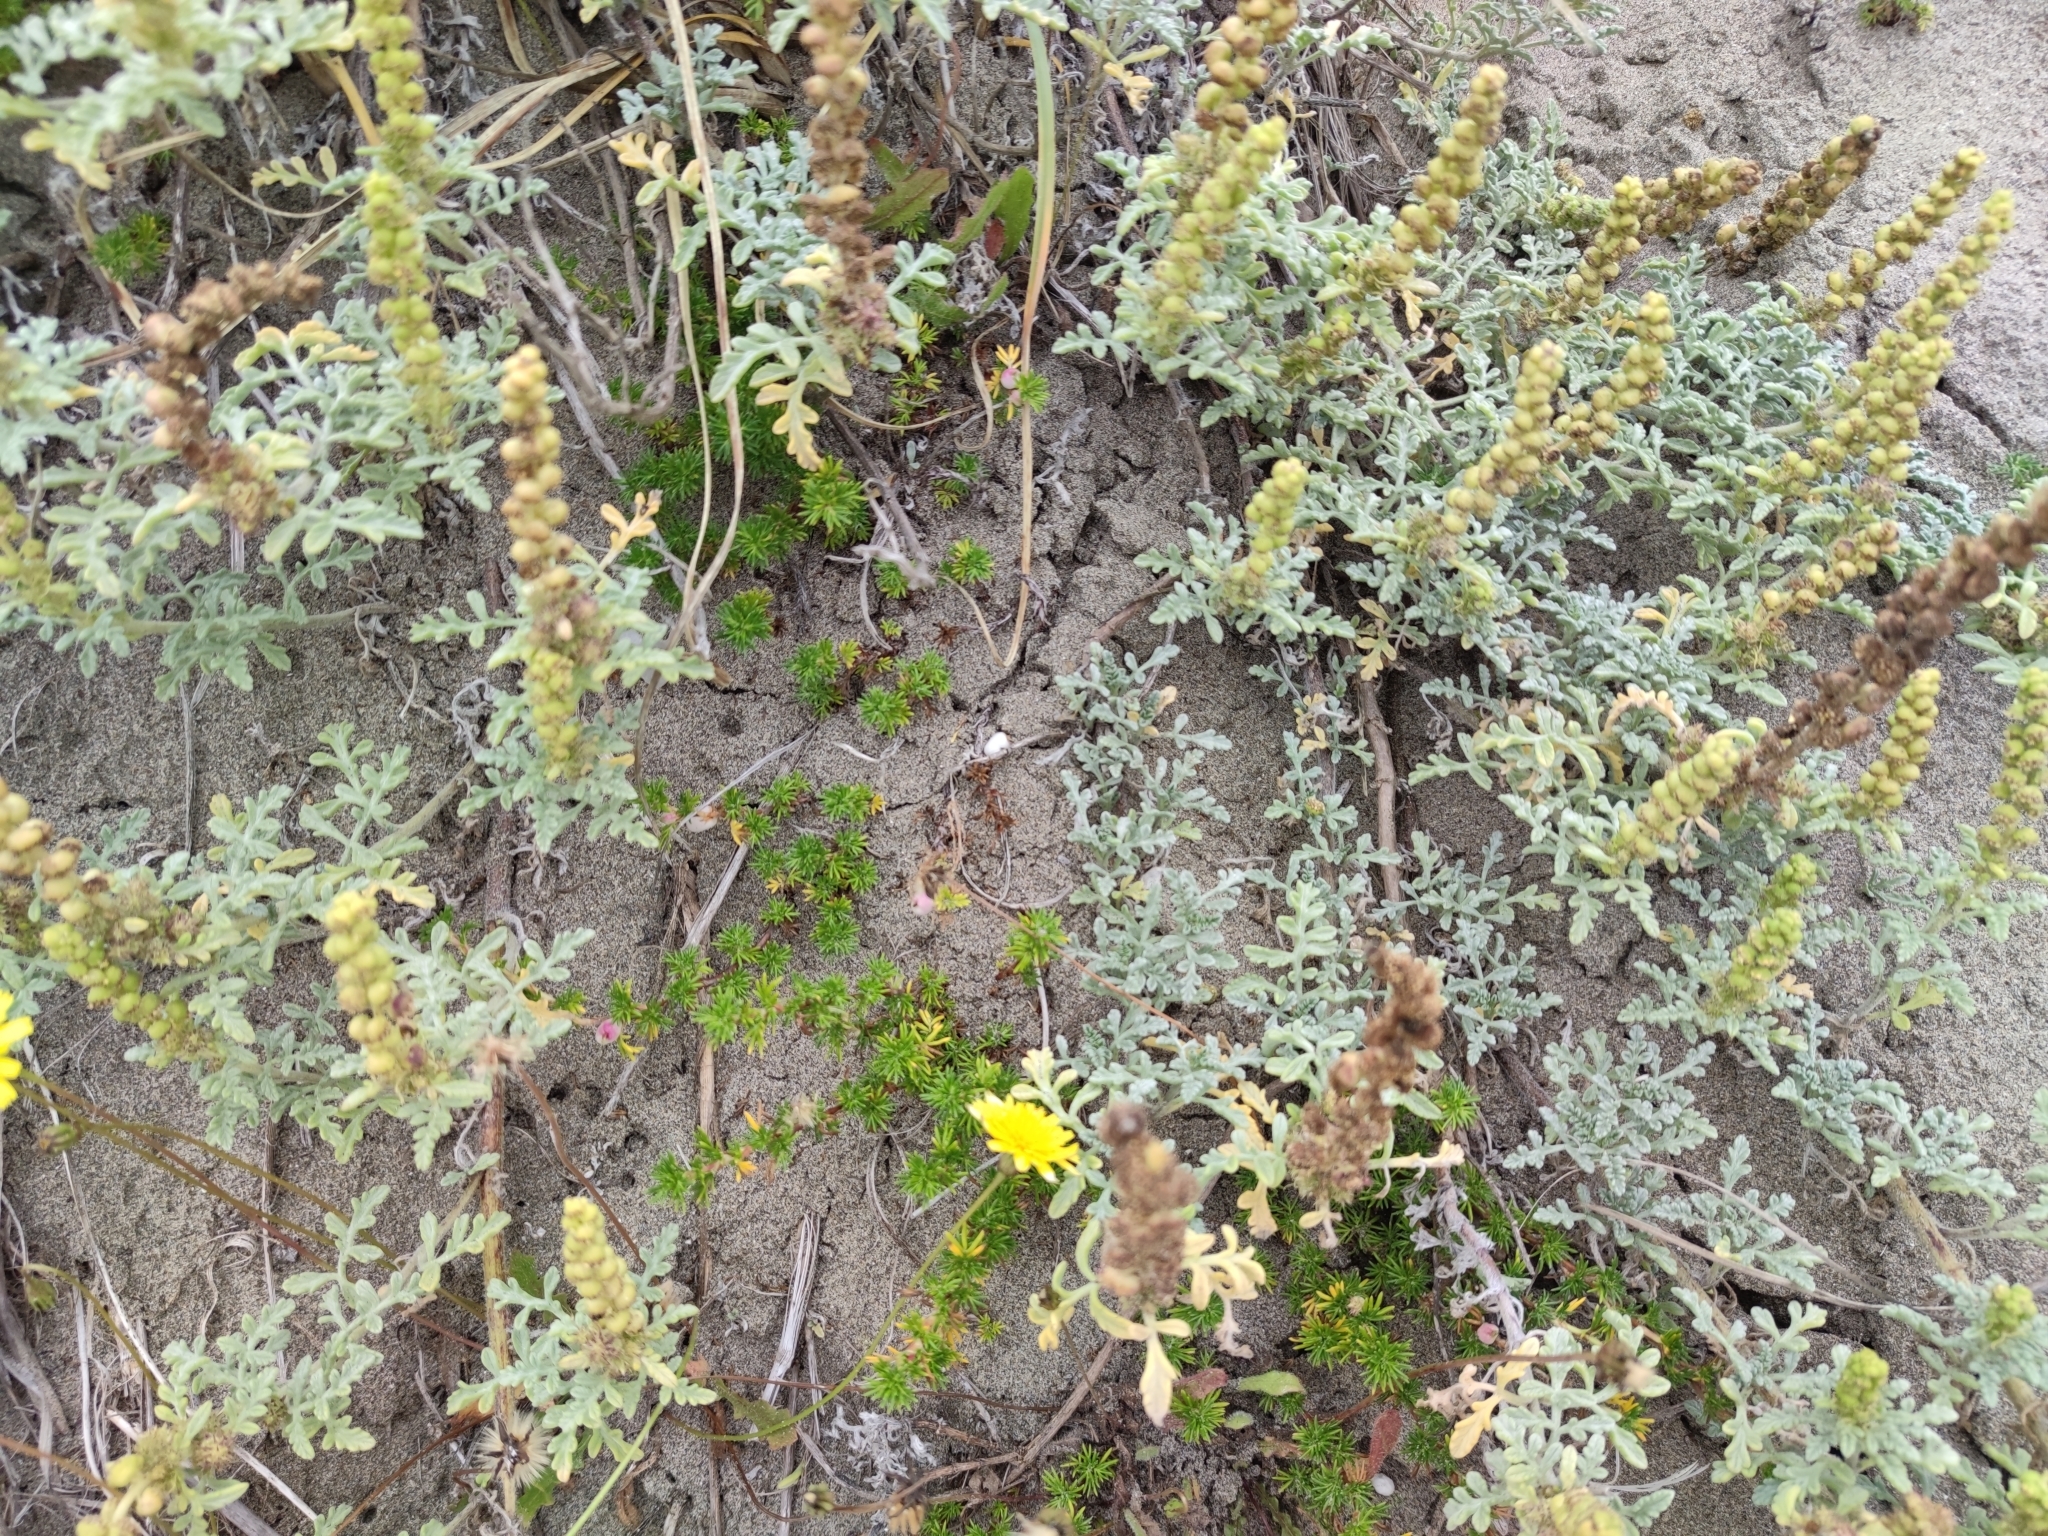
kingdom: Plantae
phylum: Tracheophyta
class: Magnoliopsida
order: Asterales
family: Asteraceae
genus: Ambrosia
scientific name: Ambrosia chamissonis
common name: Beachbur
